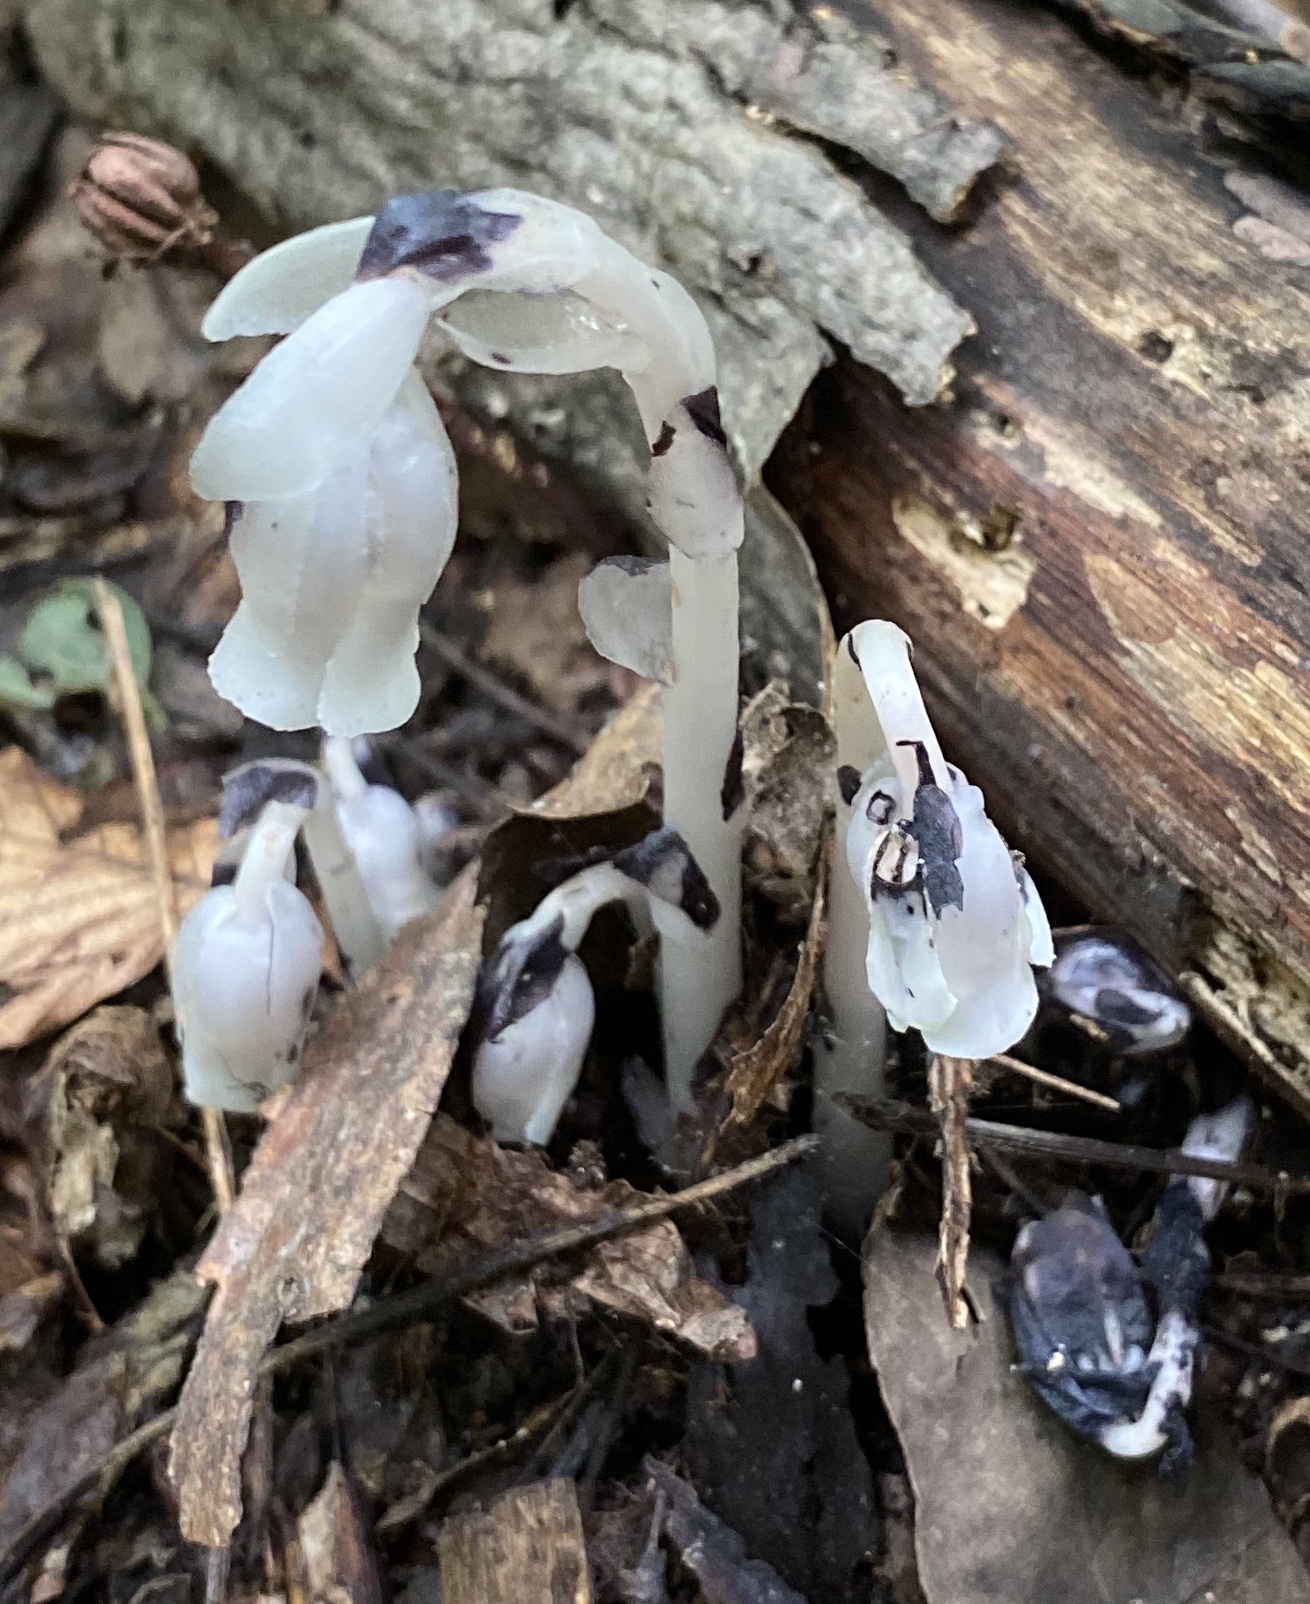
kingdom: Plantae
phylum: Tracheophyta
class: Magnoliopsida
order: Ericales
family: Ericaceae
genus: Monotropa
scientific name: Monotropa uniflora
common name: Convulsion root
